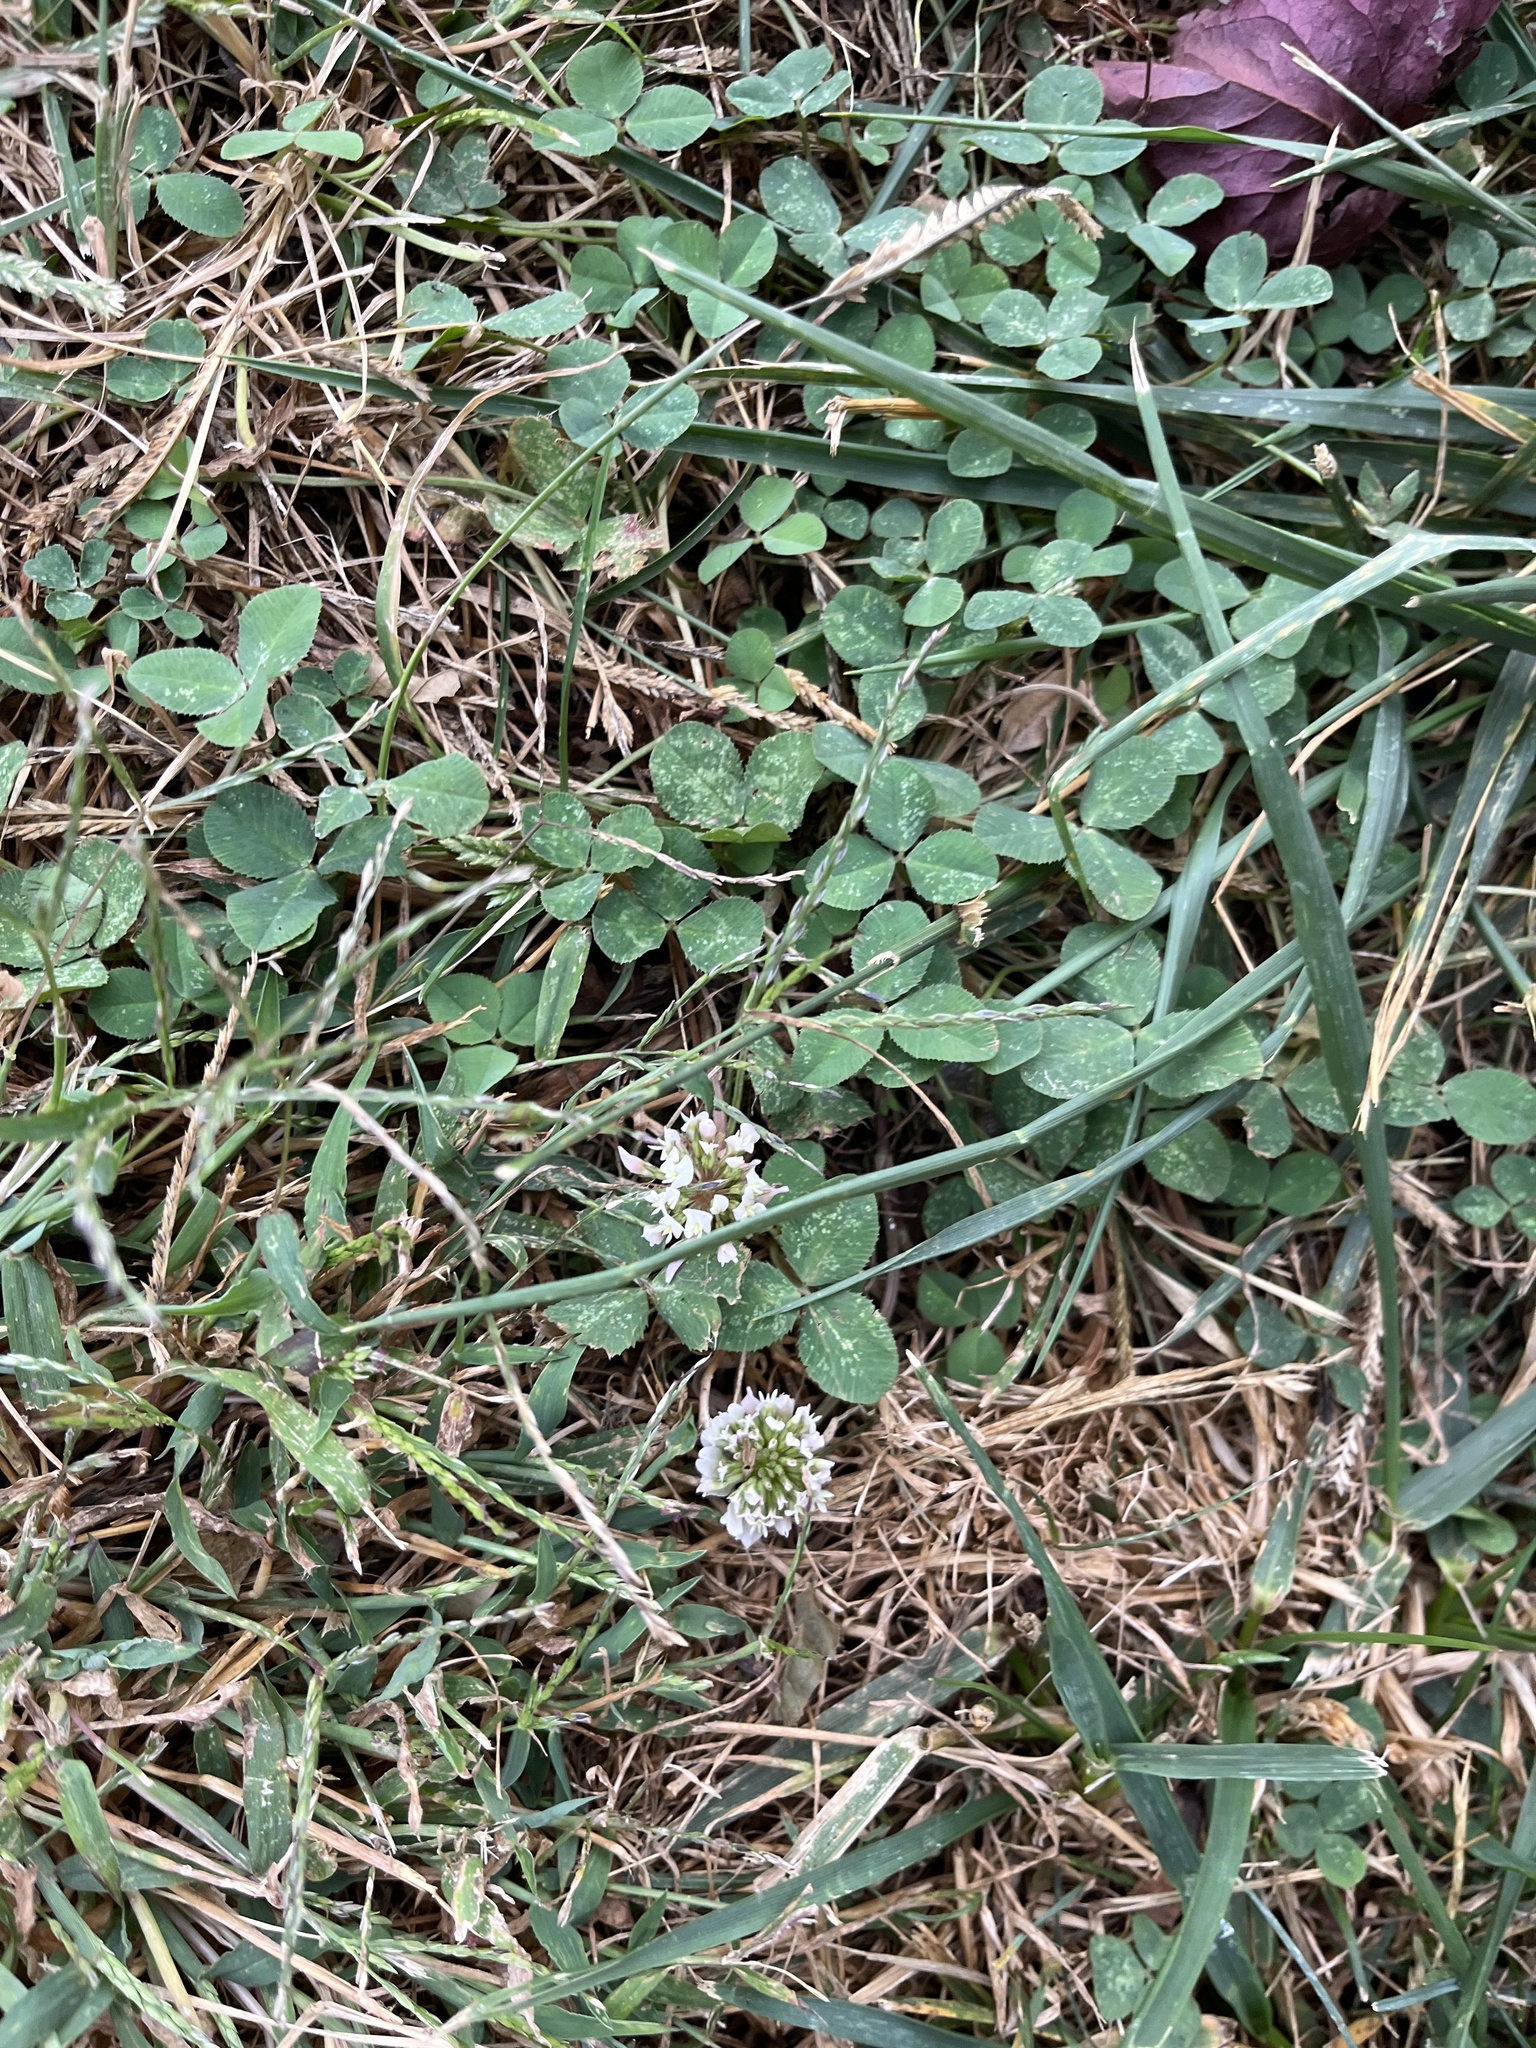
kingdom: Plantae
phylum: Tracheophyta
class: Magnoliopsida
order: Fabales
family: Fabaceae
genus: Trifolium
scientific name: Trifolium repens
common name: White clover
